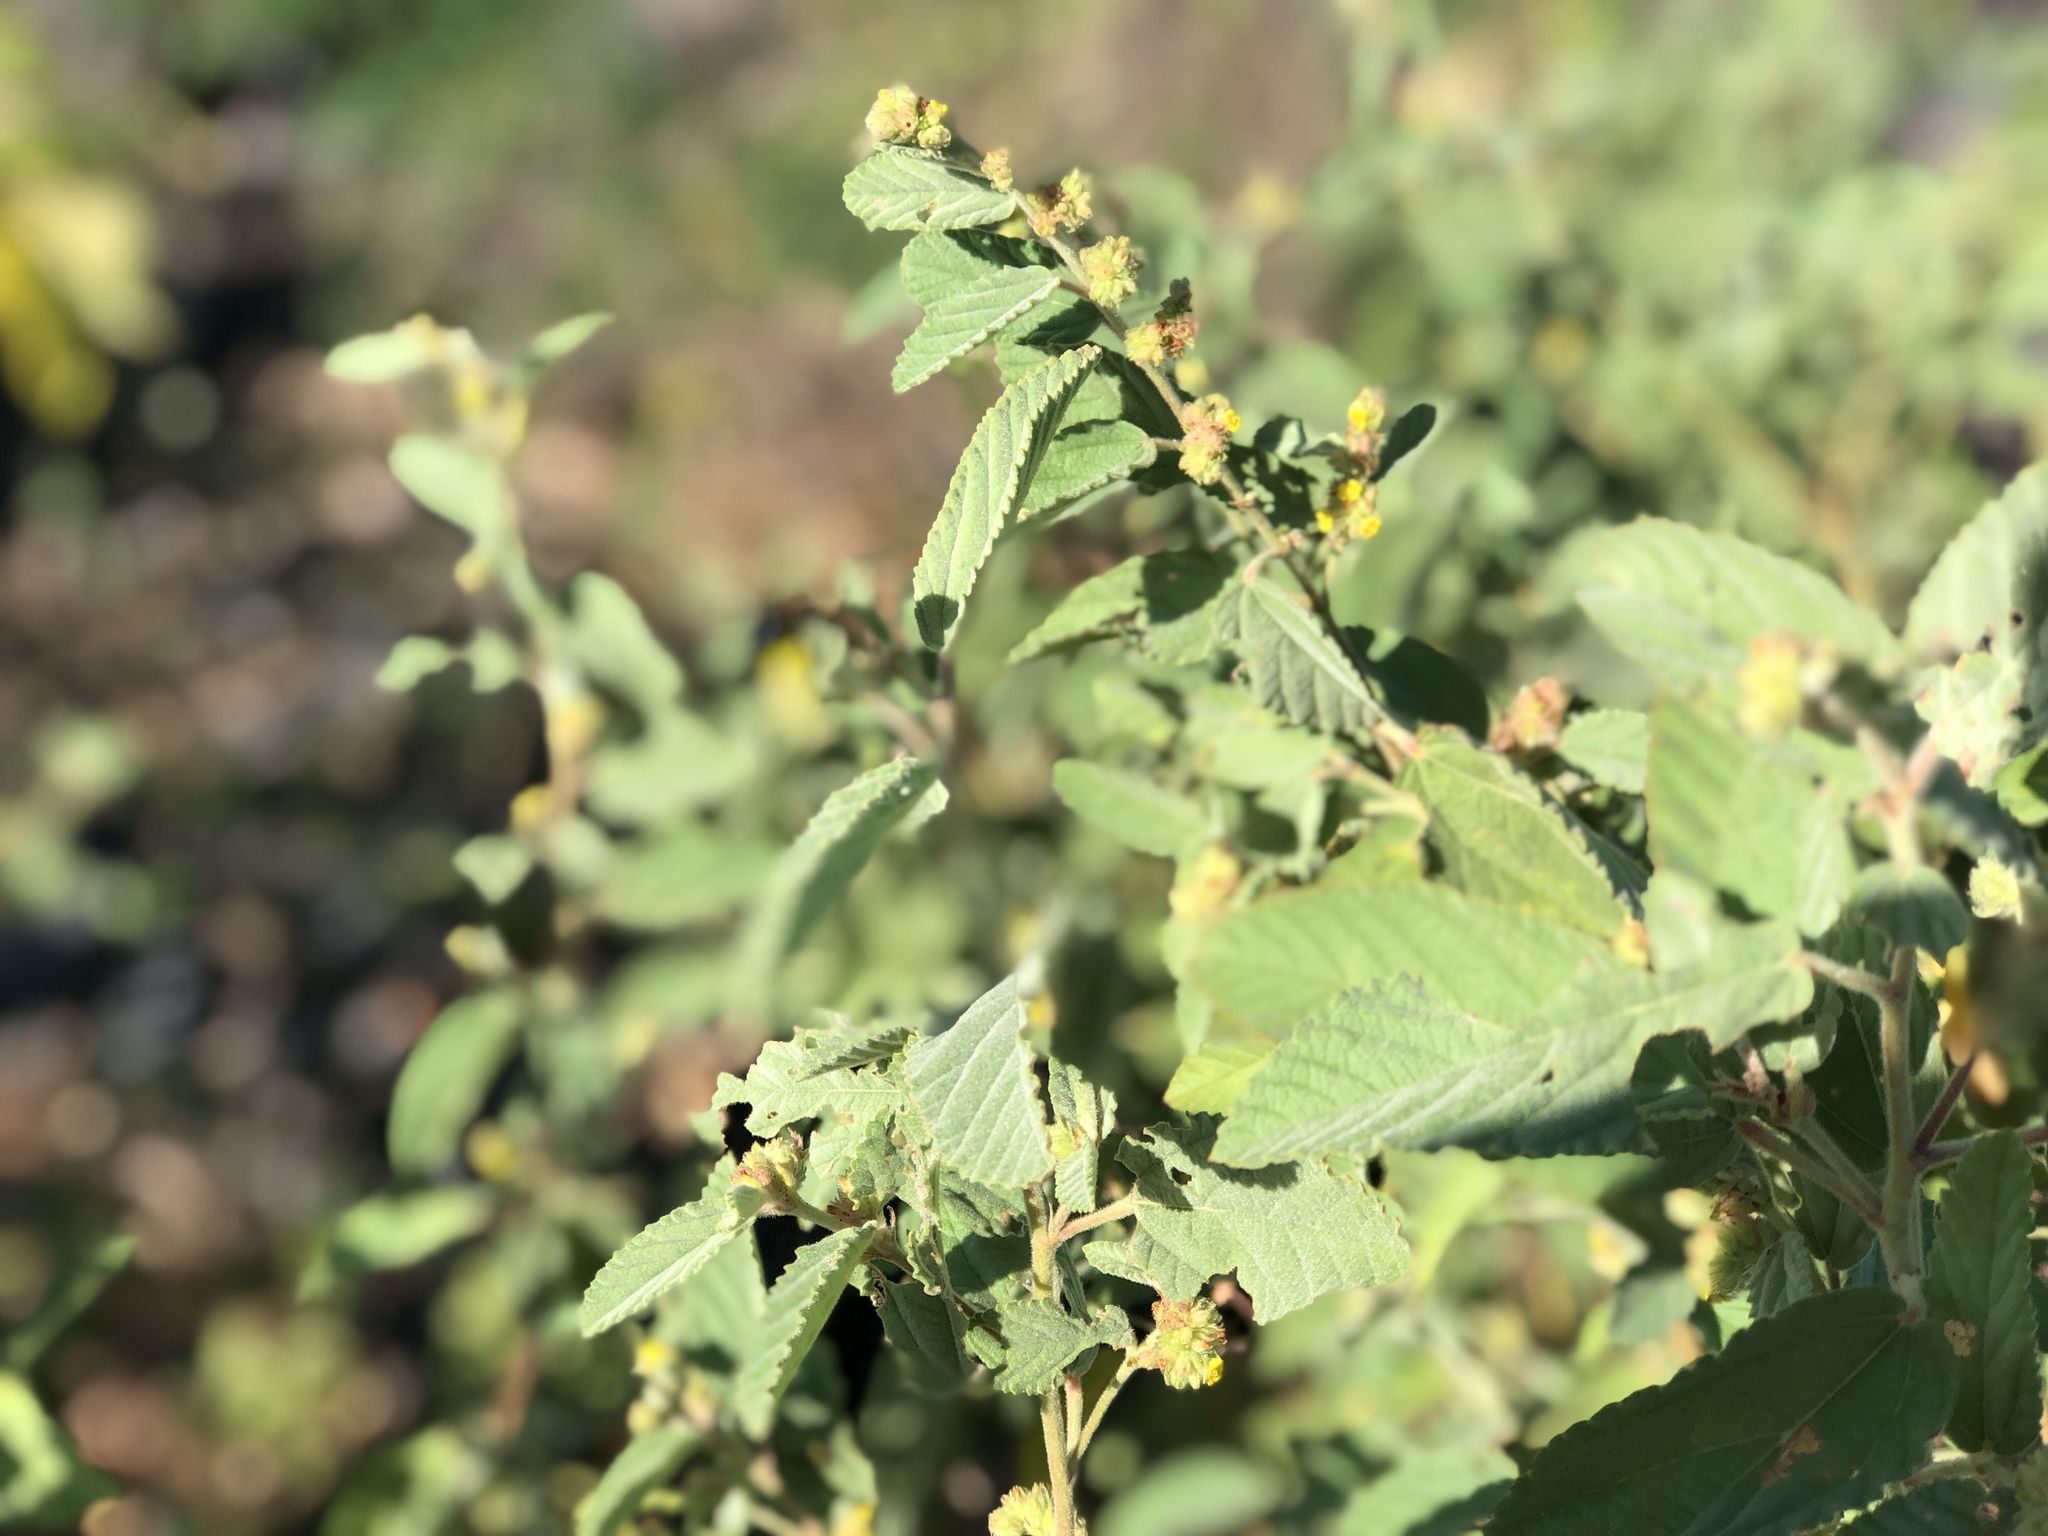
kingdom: Plantae
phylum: Tracheophyta
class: Magnoliopsida
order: Malvales
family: Malvaceae
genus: Waltheria
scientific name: Waltheria indica
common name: Leather-coat
